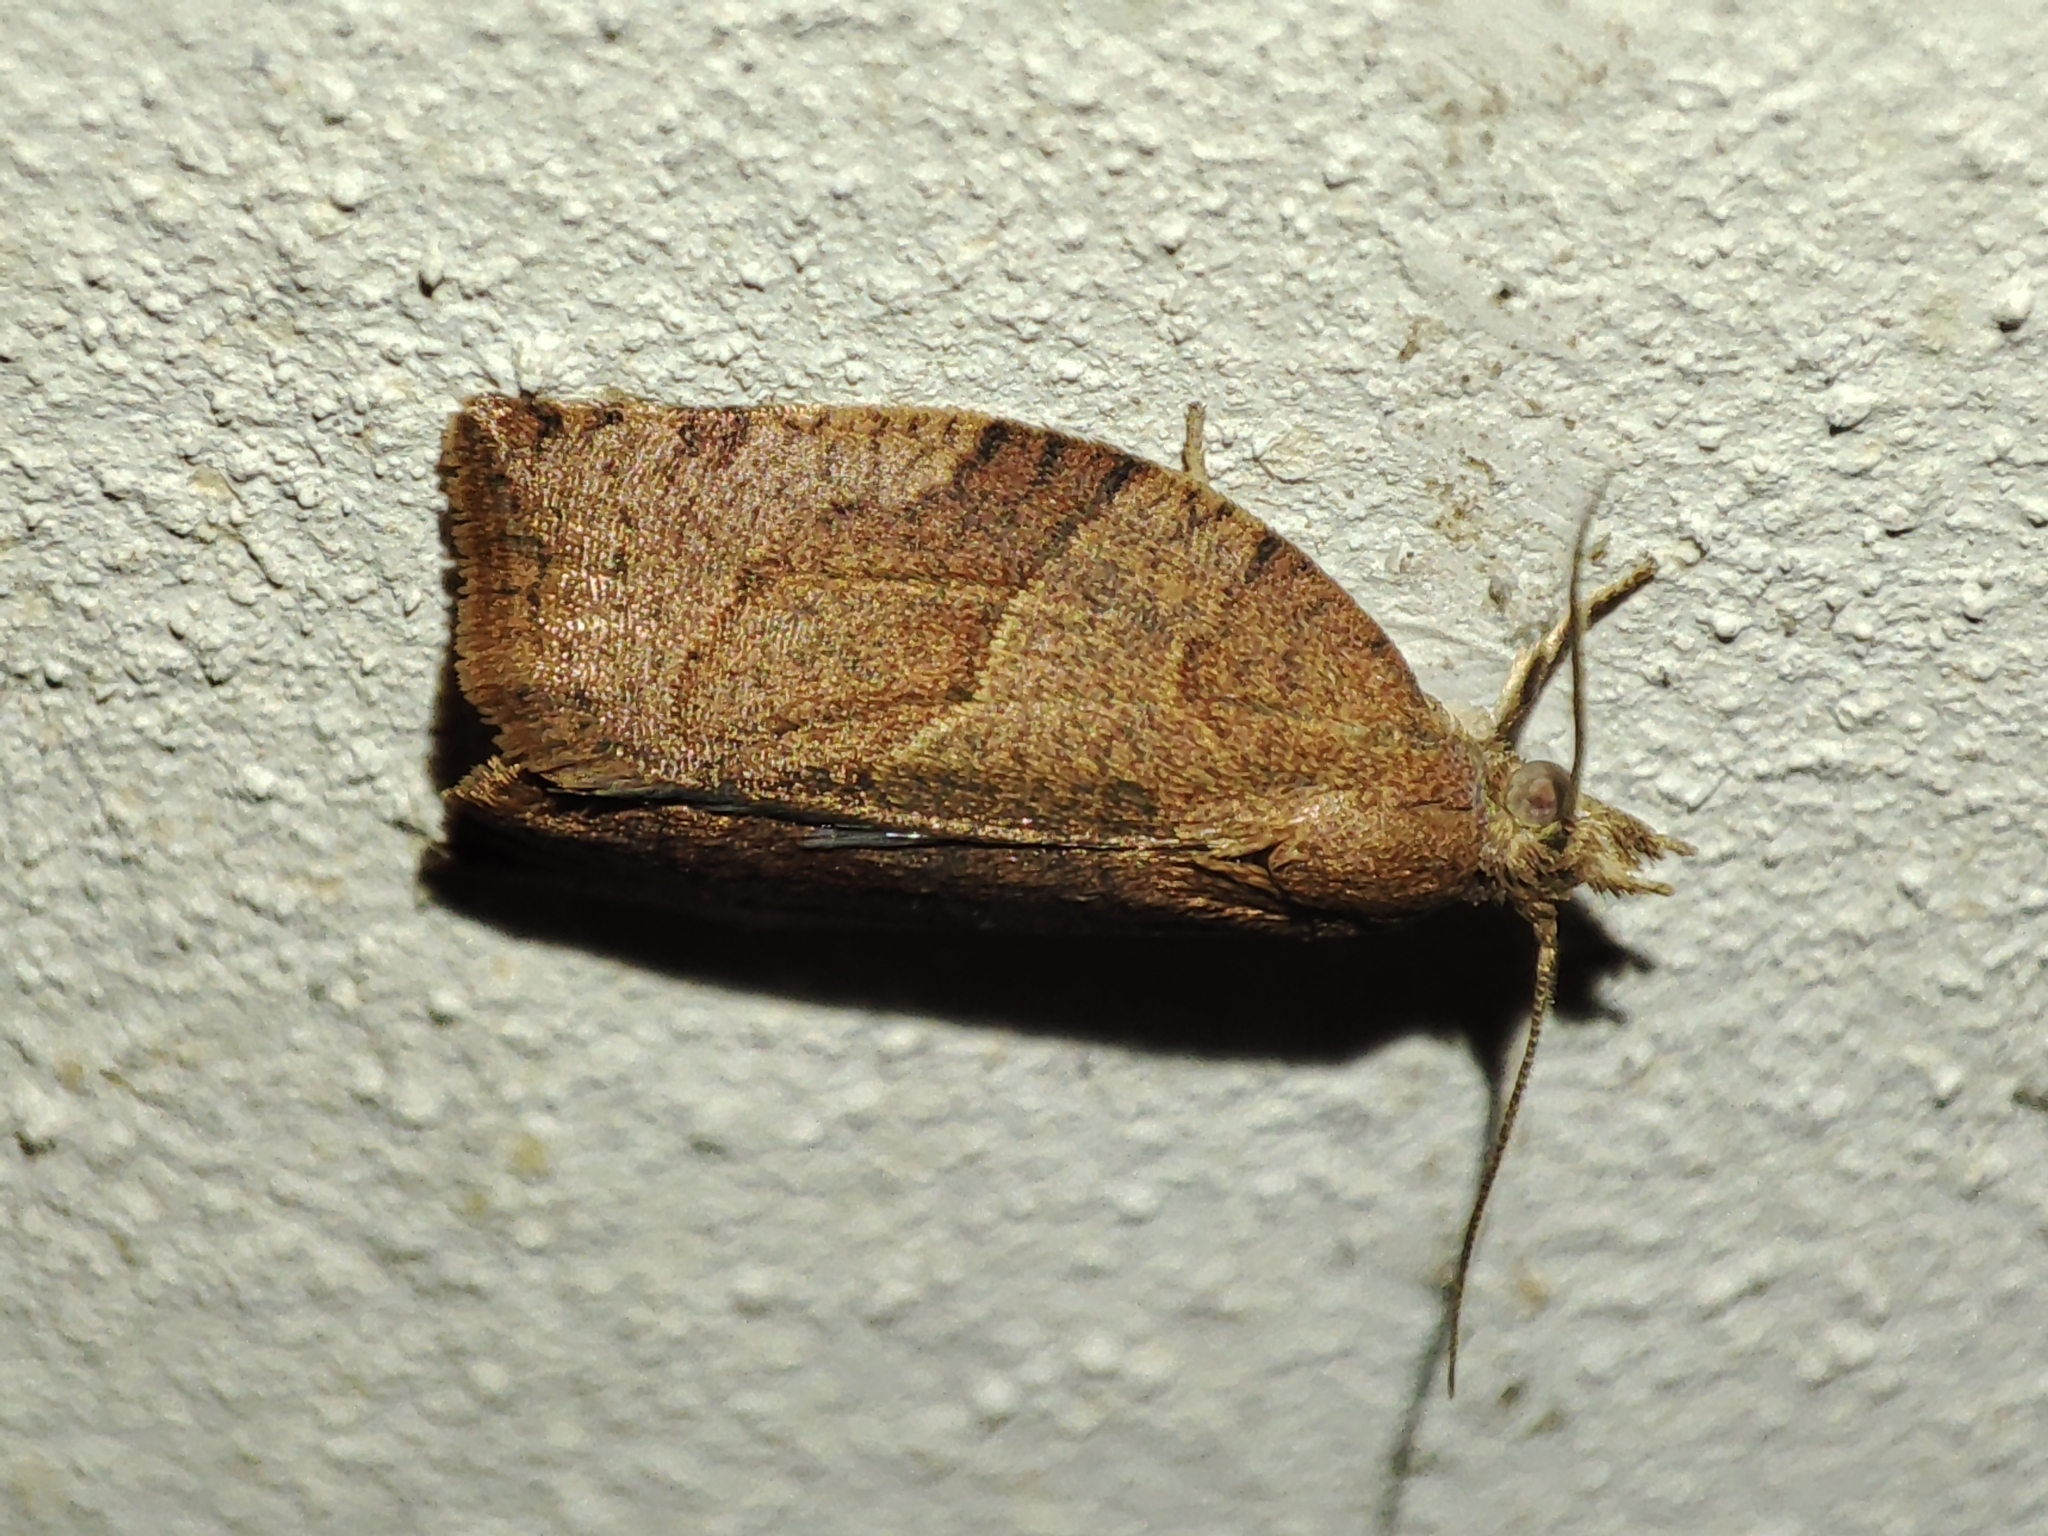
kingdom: Animalia
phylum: Arthropoda
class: Insecta
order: Lepidoptera
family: Tortricidae
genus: Pandemis
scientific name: Pandemis heparana
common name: Dark fruit-tree tortrix
